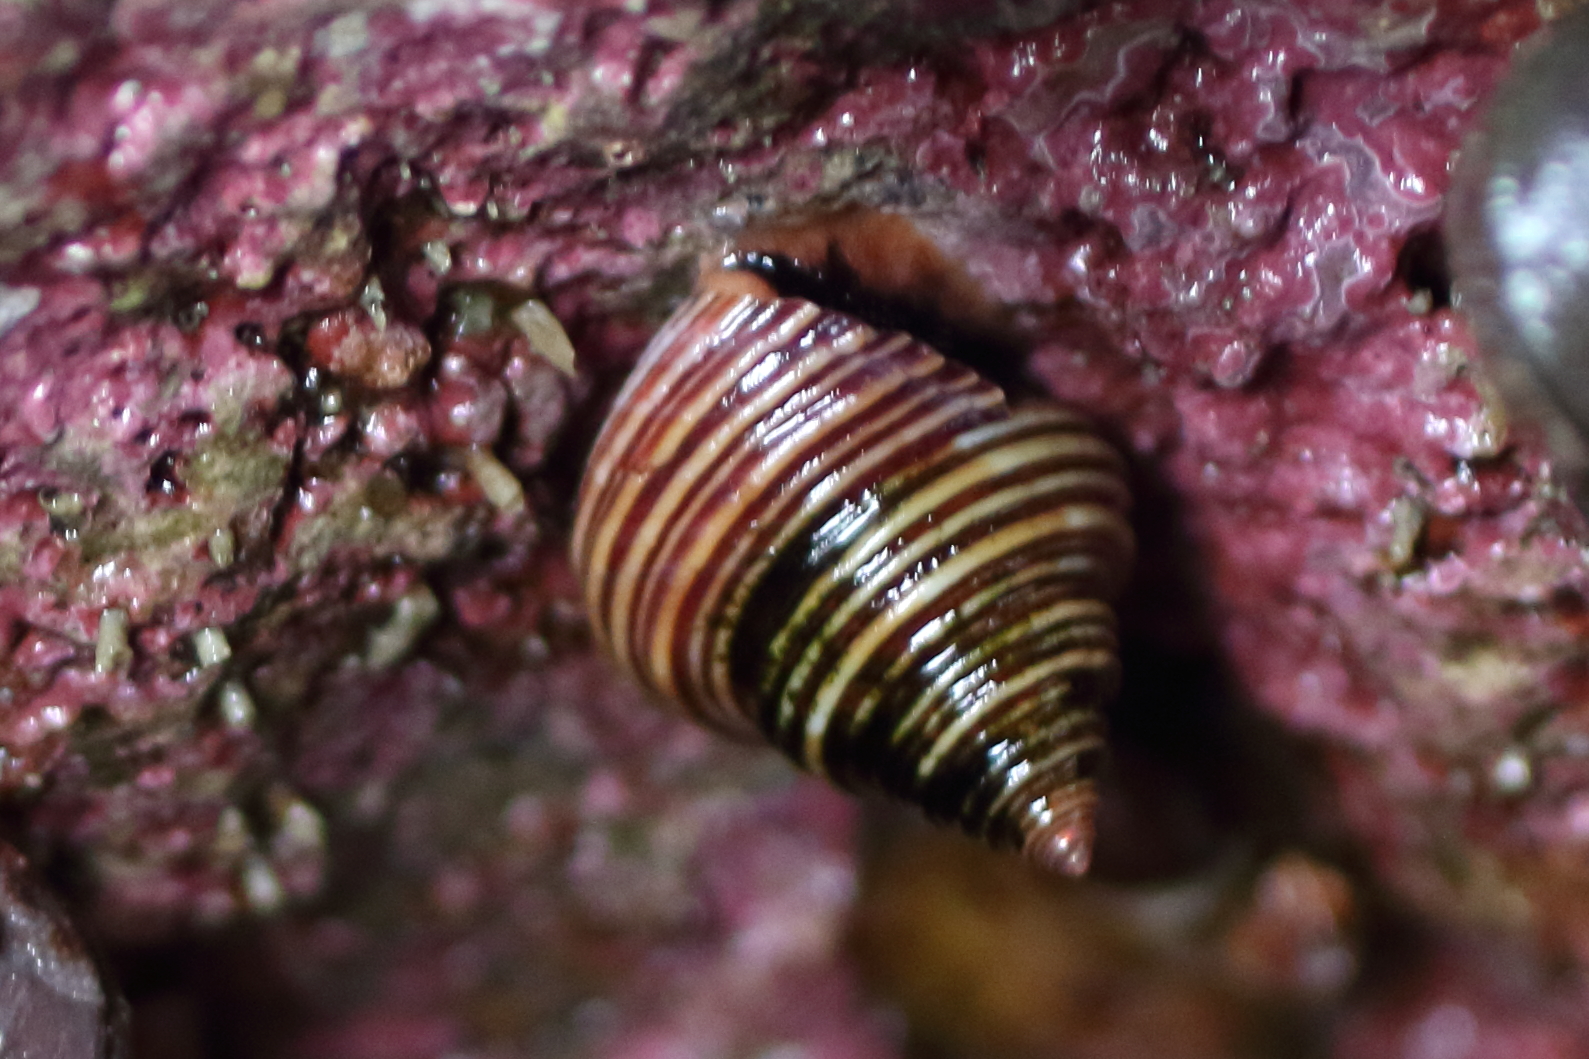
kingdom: Animalia
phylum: Mollusca
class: Gastropoda
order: Trochida
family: Calliostomatidae
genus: Calliostoma
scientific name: Calliostoma ligatum
